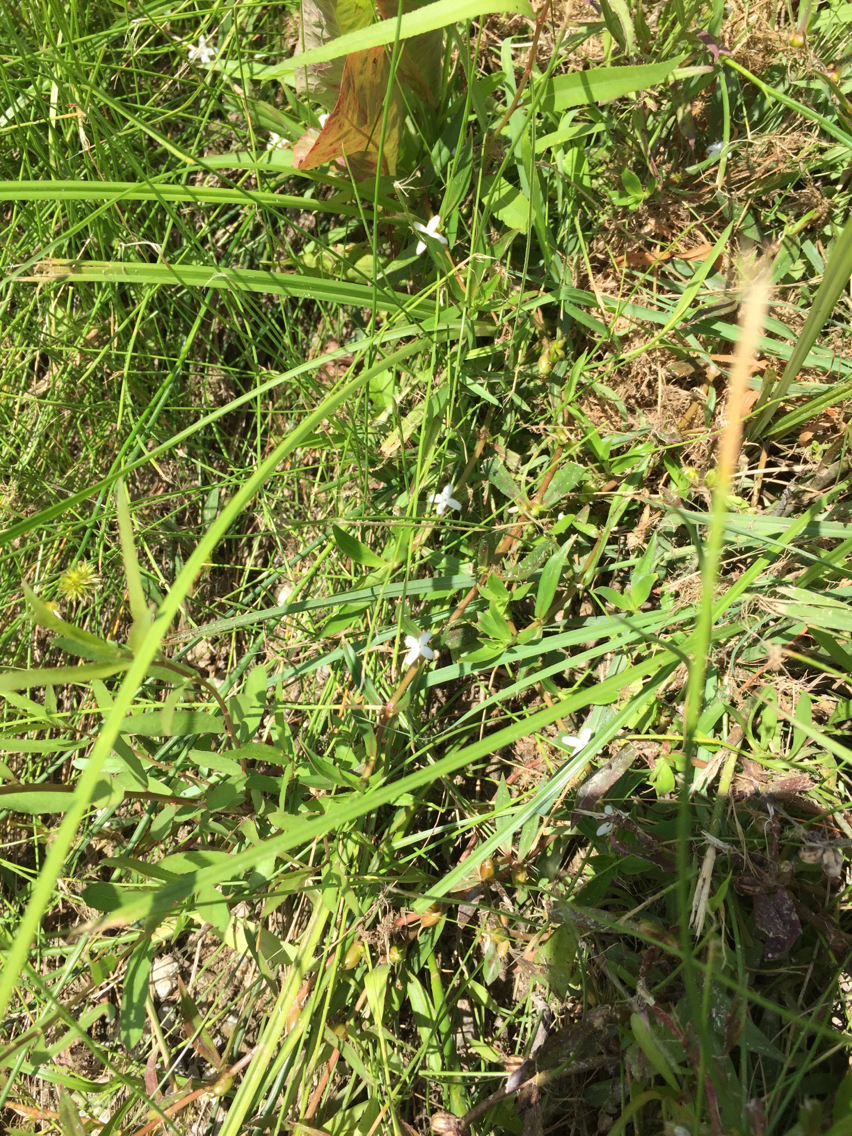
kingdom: Plantae
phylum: Tracheophyta
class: Magnoliopsida
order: Gentianales
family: Rubiaceae
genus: Diodia
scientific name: Diodia virginiana
